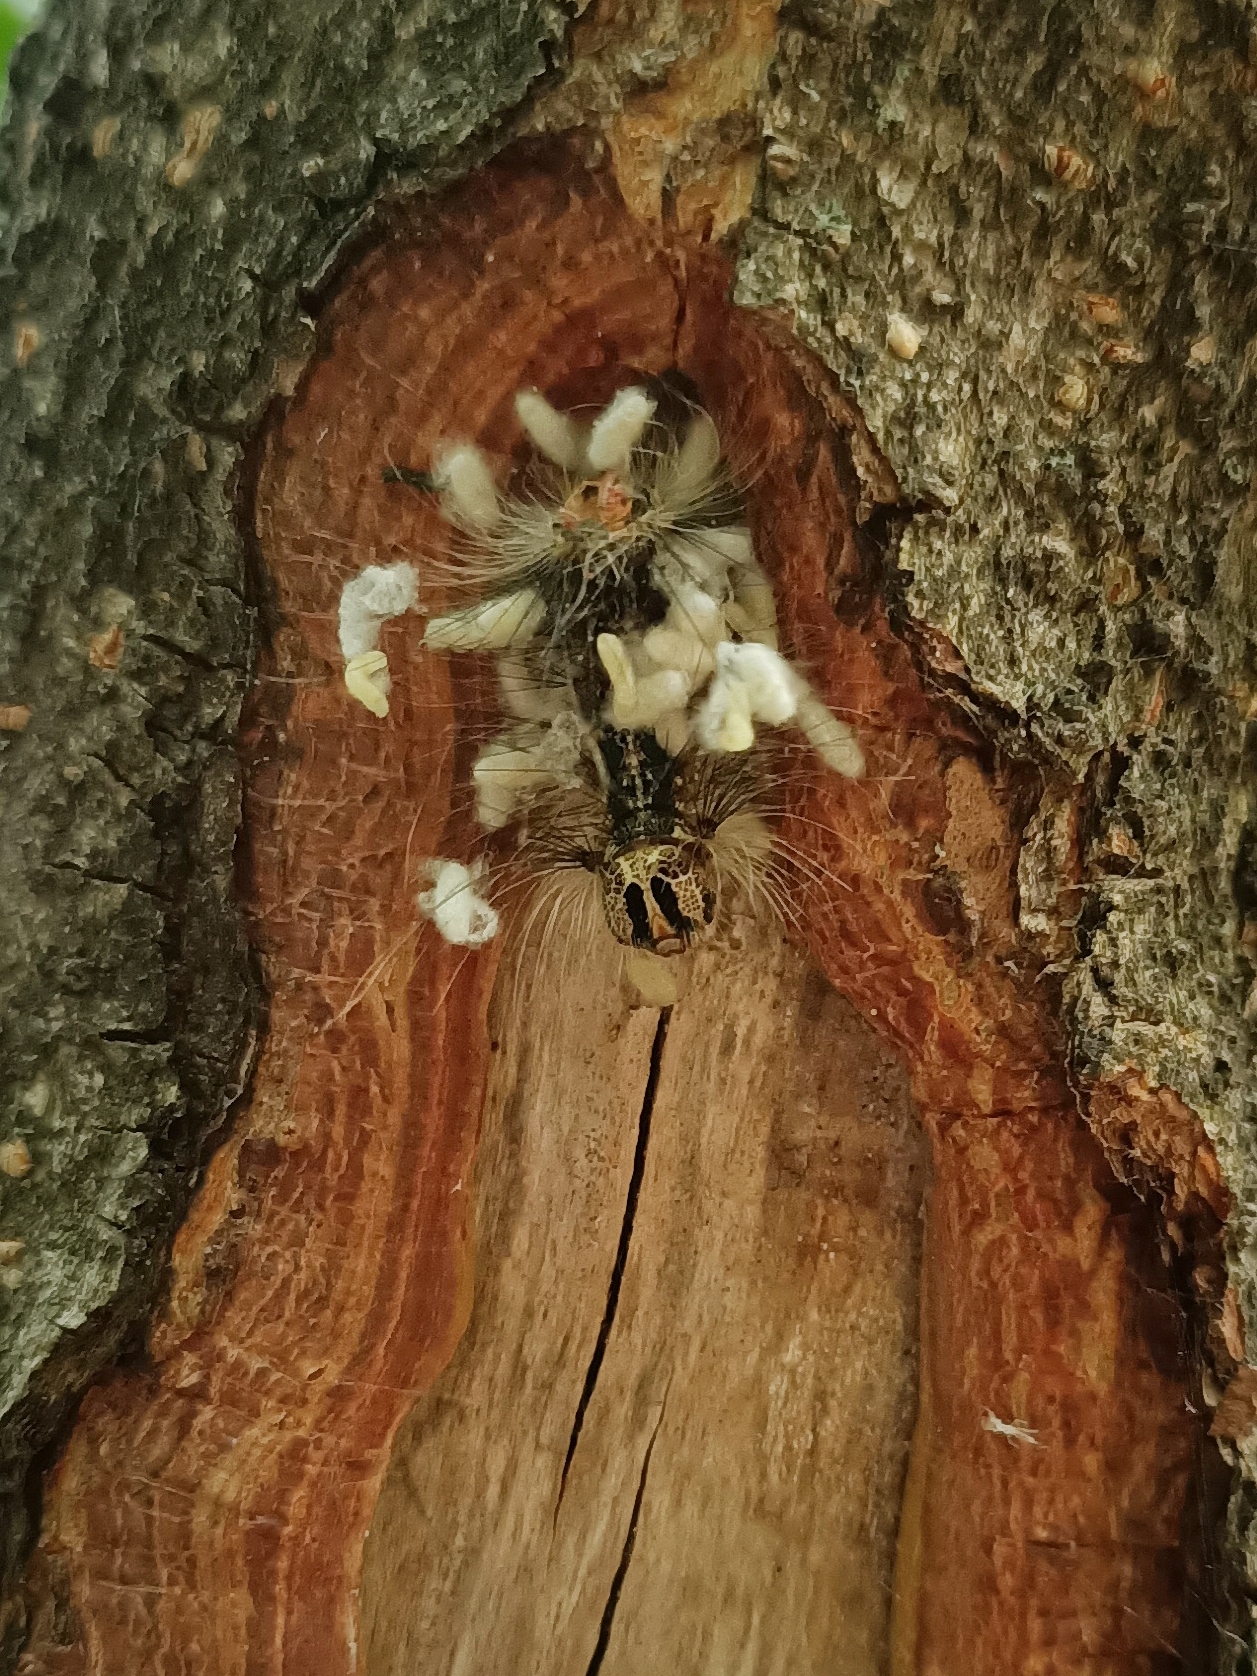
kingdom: Animalia
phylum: Arthropoda
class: Insecta
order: Lepidoptera
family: Erebidae
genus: Lymantria
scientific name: Lymantria dispar
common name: Gypsy moth
